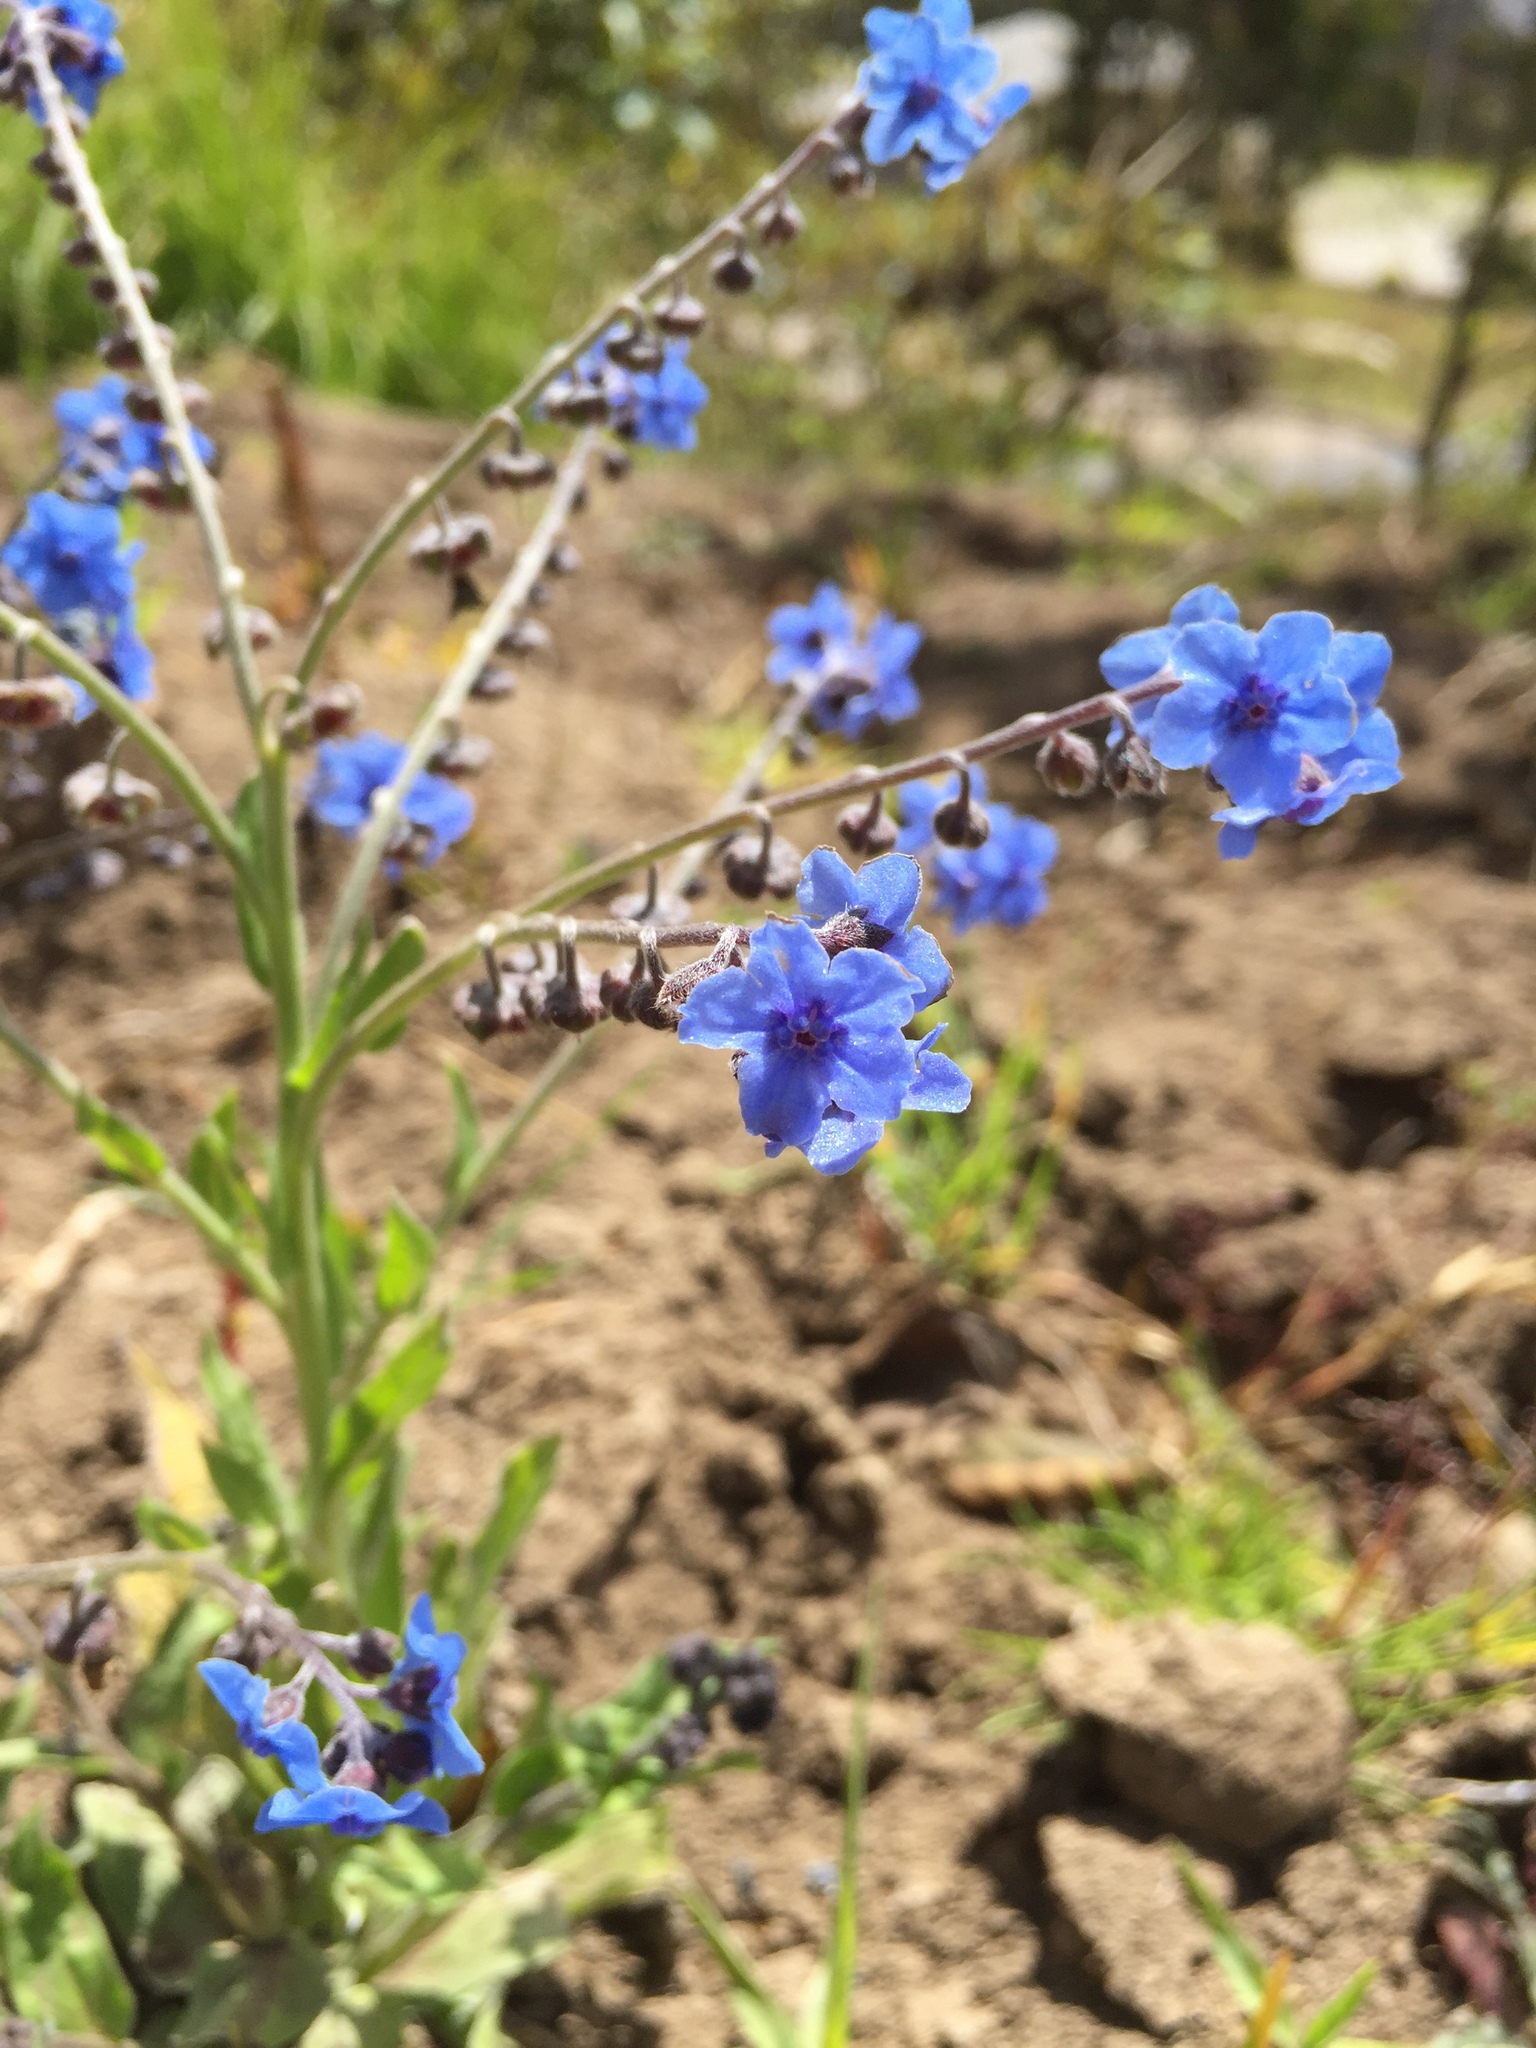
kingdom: Plantae
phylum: Tracheophyta
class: Magnoliopsida
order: Boraginales
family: Boraginaceae
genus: Cynoglossum
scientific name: Cynoglossum amabile
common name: Chinese hound's tongue
